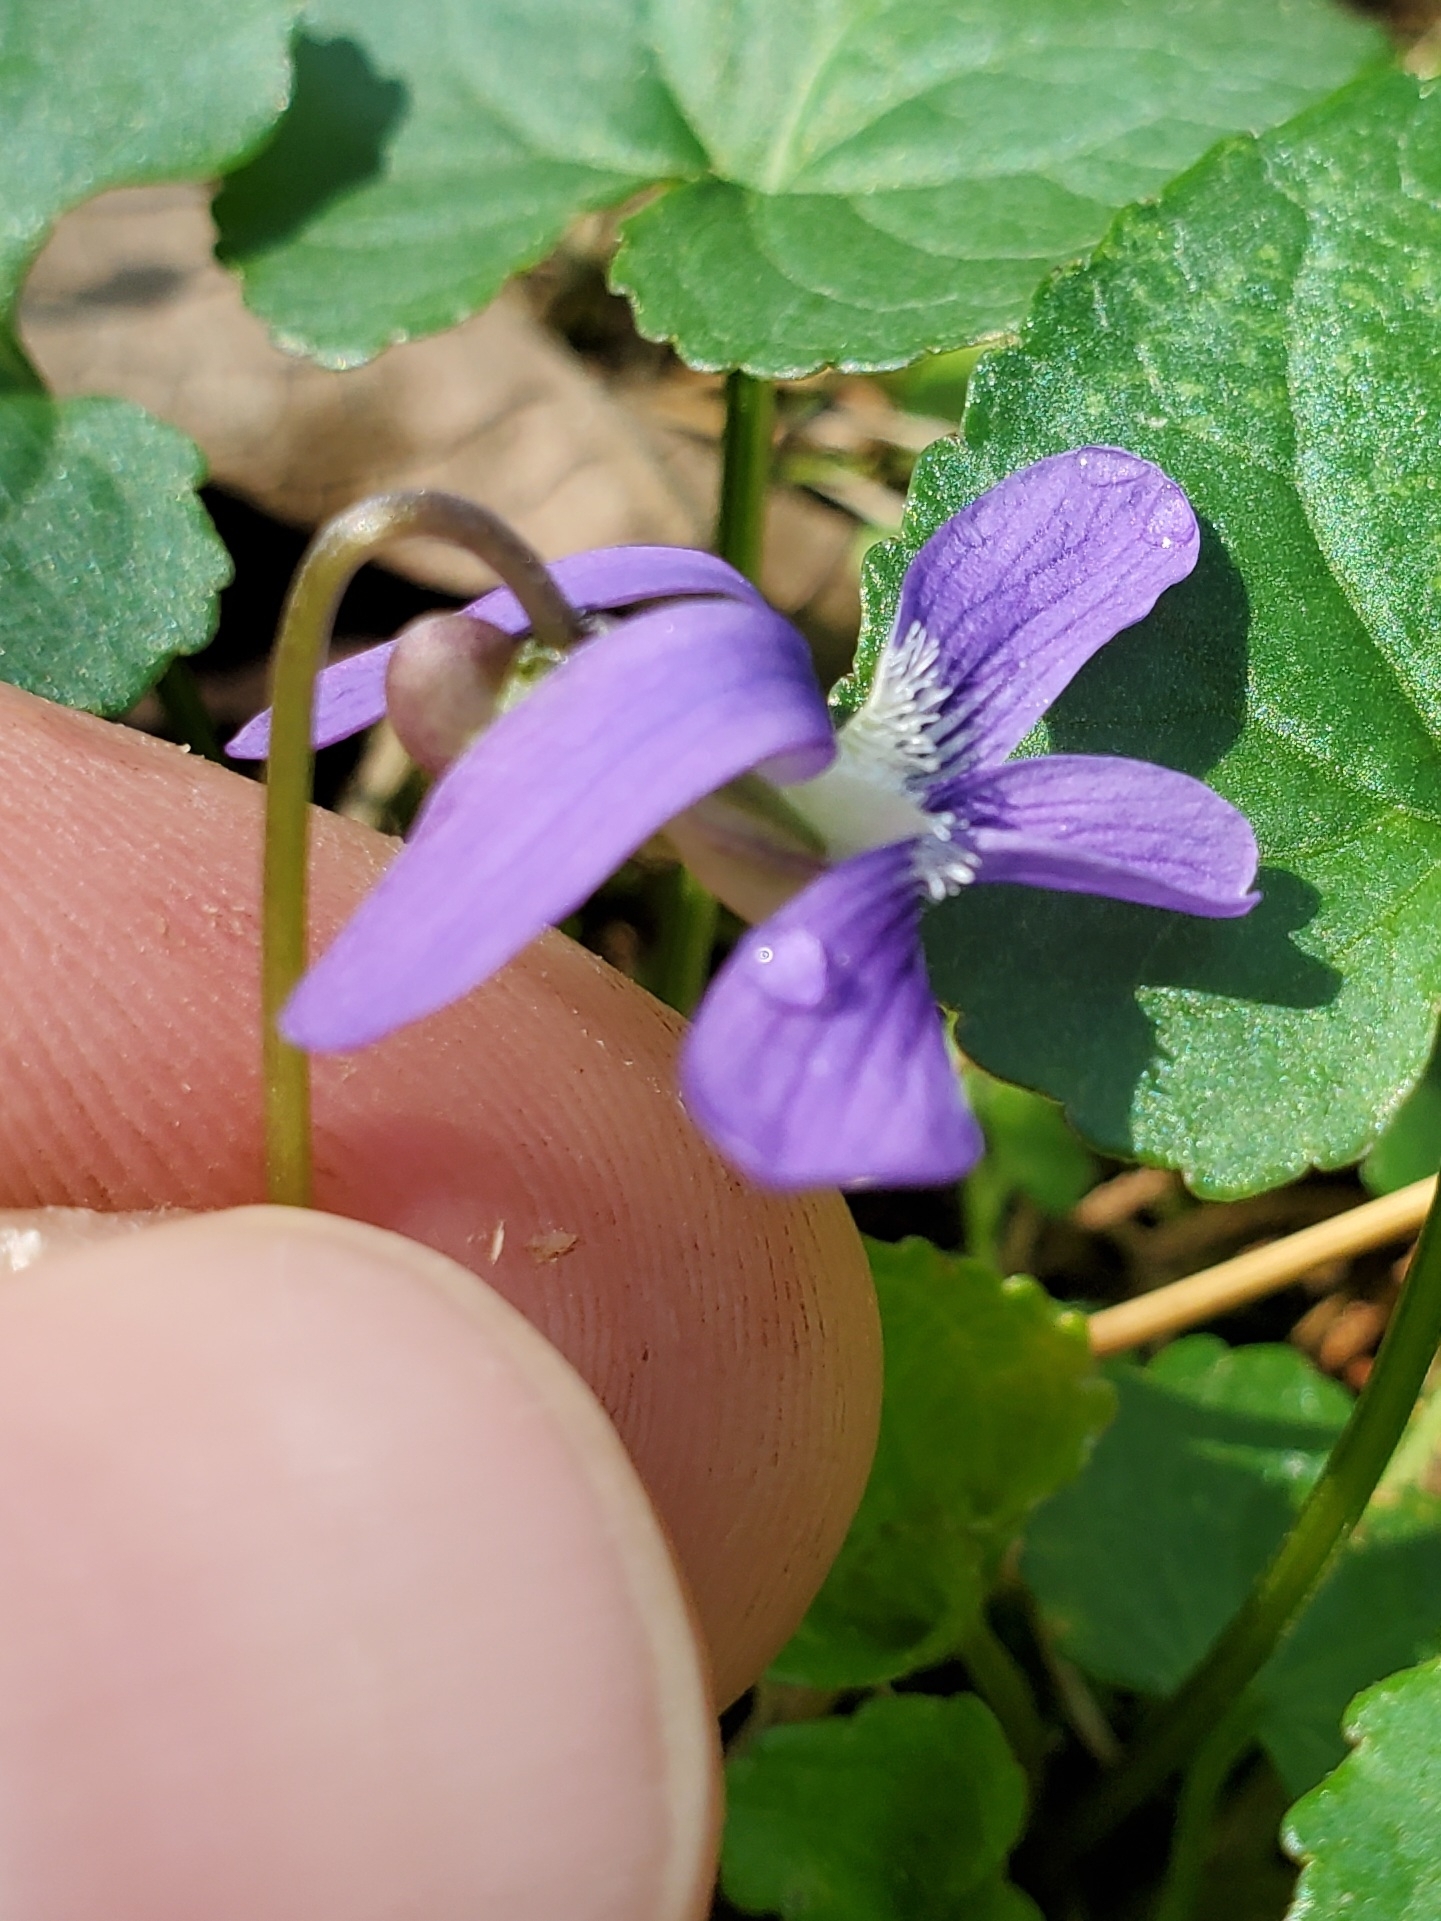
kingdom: Plantae
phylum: Tracheophyta
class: Magnoliopsida
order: Malpighiales
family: Violaceae
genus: Viola
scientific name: Viola sororia
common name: Dooryard violet
